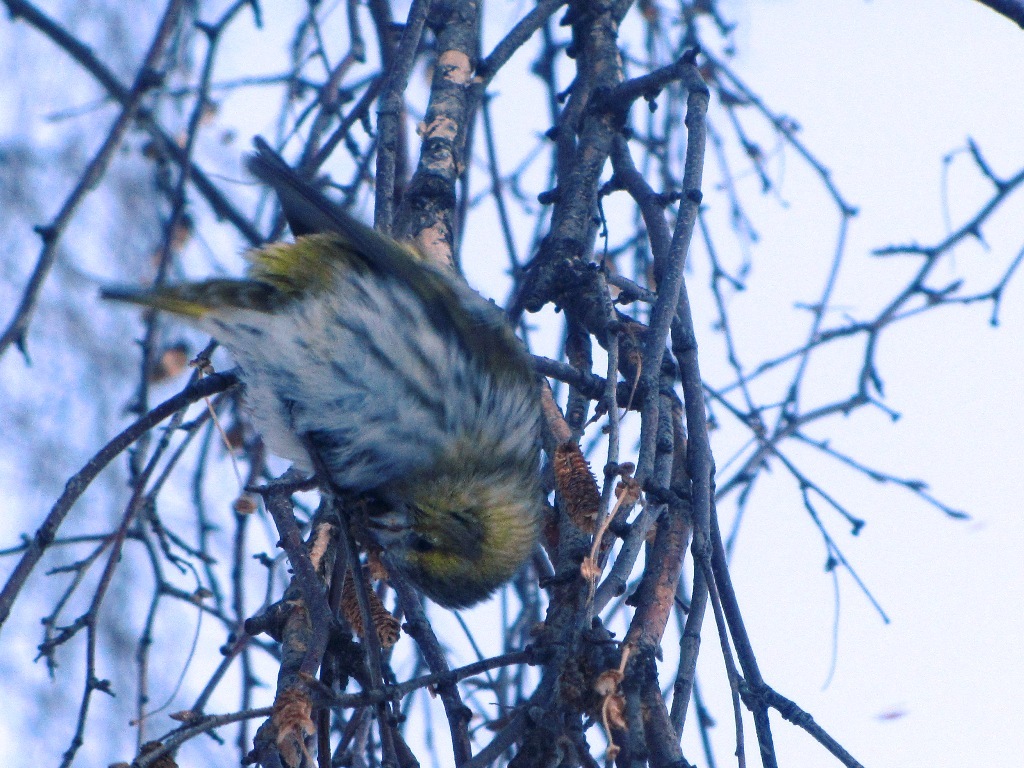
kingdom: Animalia
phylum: Chordata
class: Aves
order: Passeriformes
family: Fringillidae
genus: Spinus
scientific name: Spinus spinus
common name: Eurasian siskin
